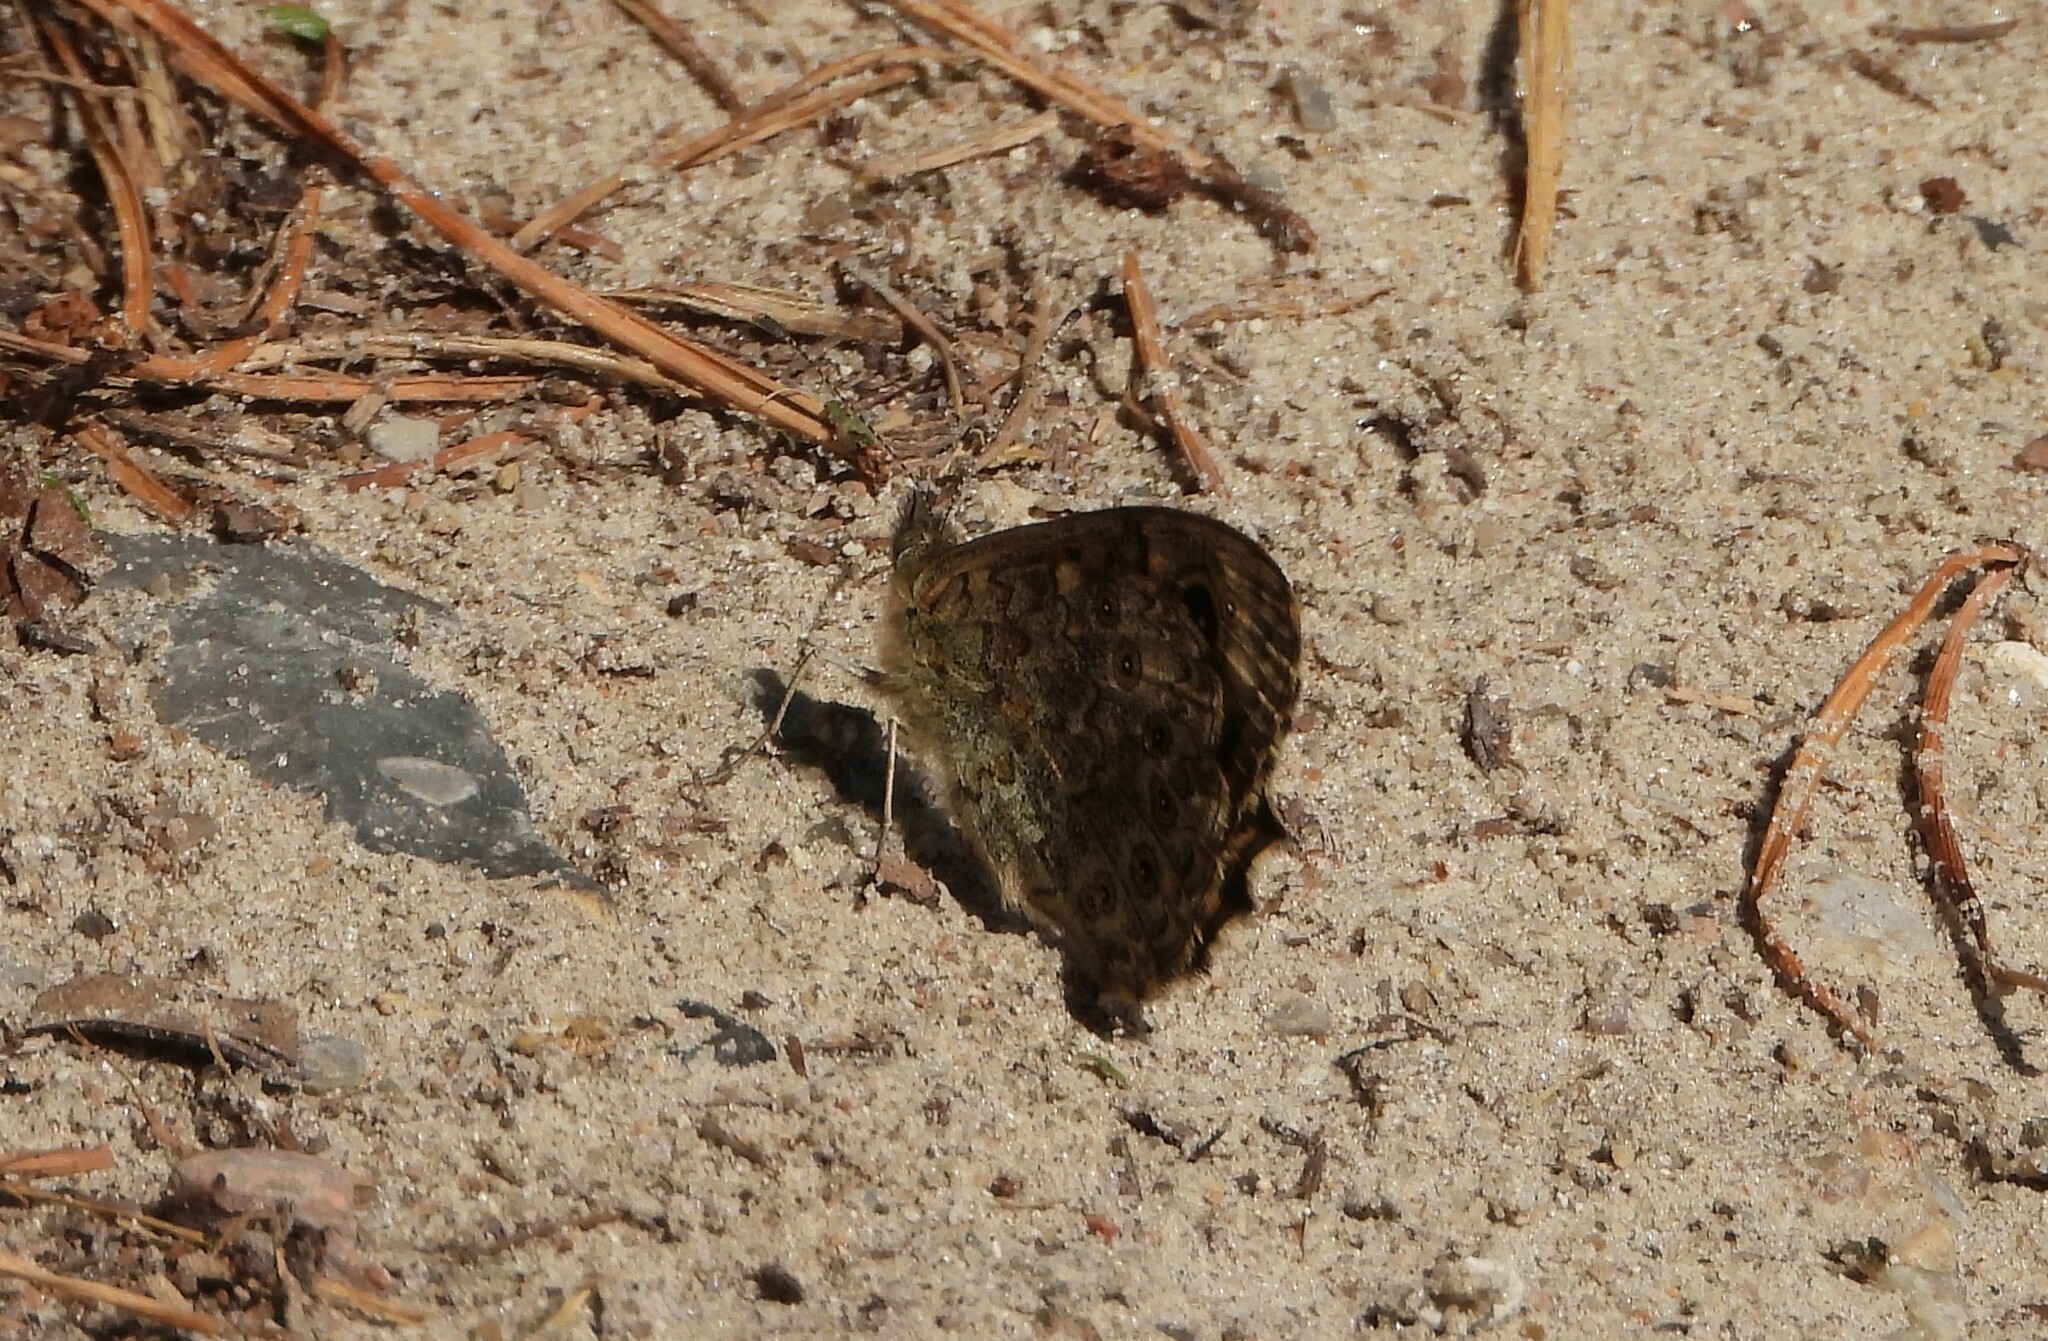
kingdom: Animalia
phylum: Arthropoda
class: Insecta
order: Lepidoptera
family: Nymphalidae
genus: Pararge
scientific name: Pararge Lasiommata megera
